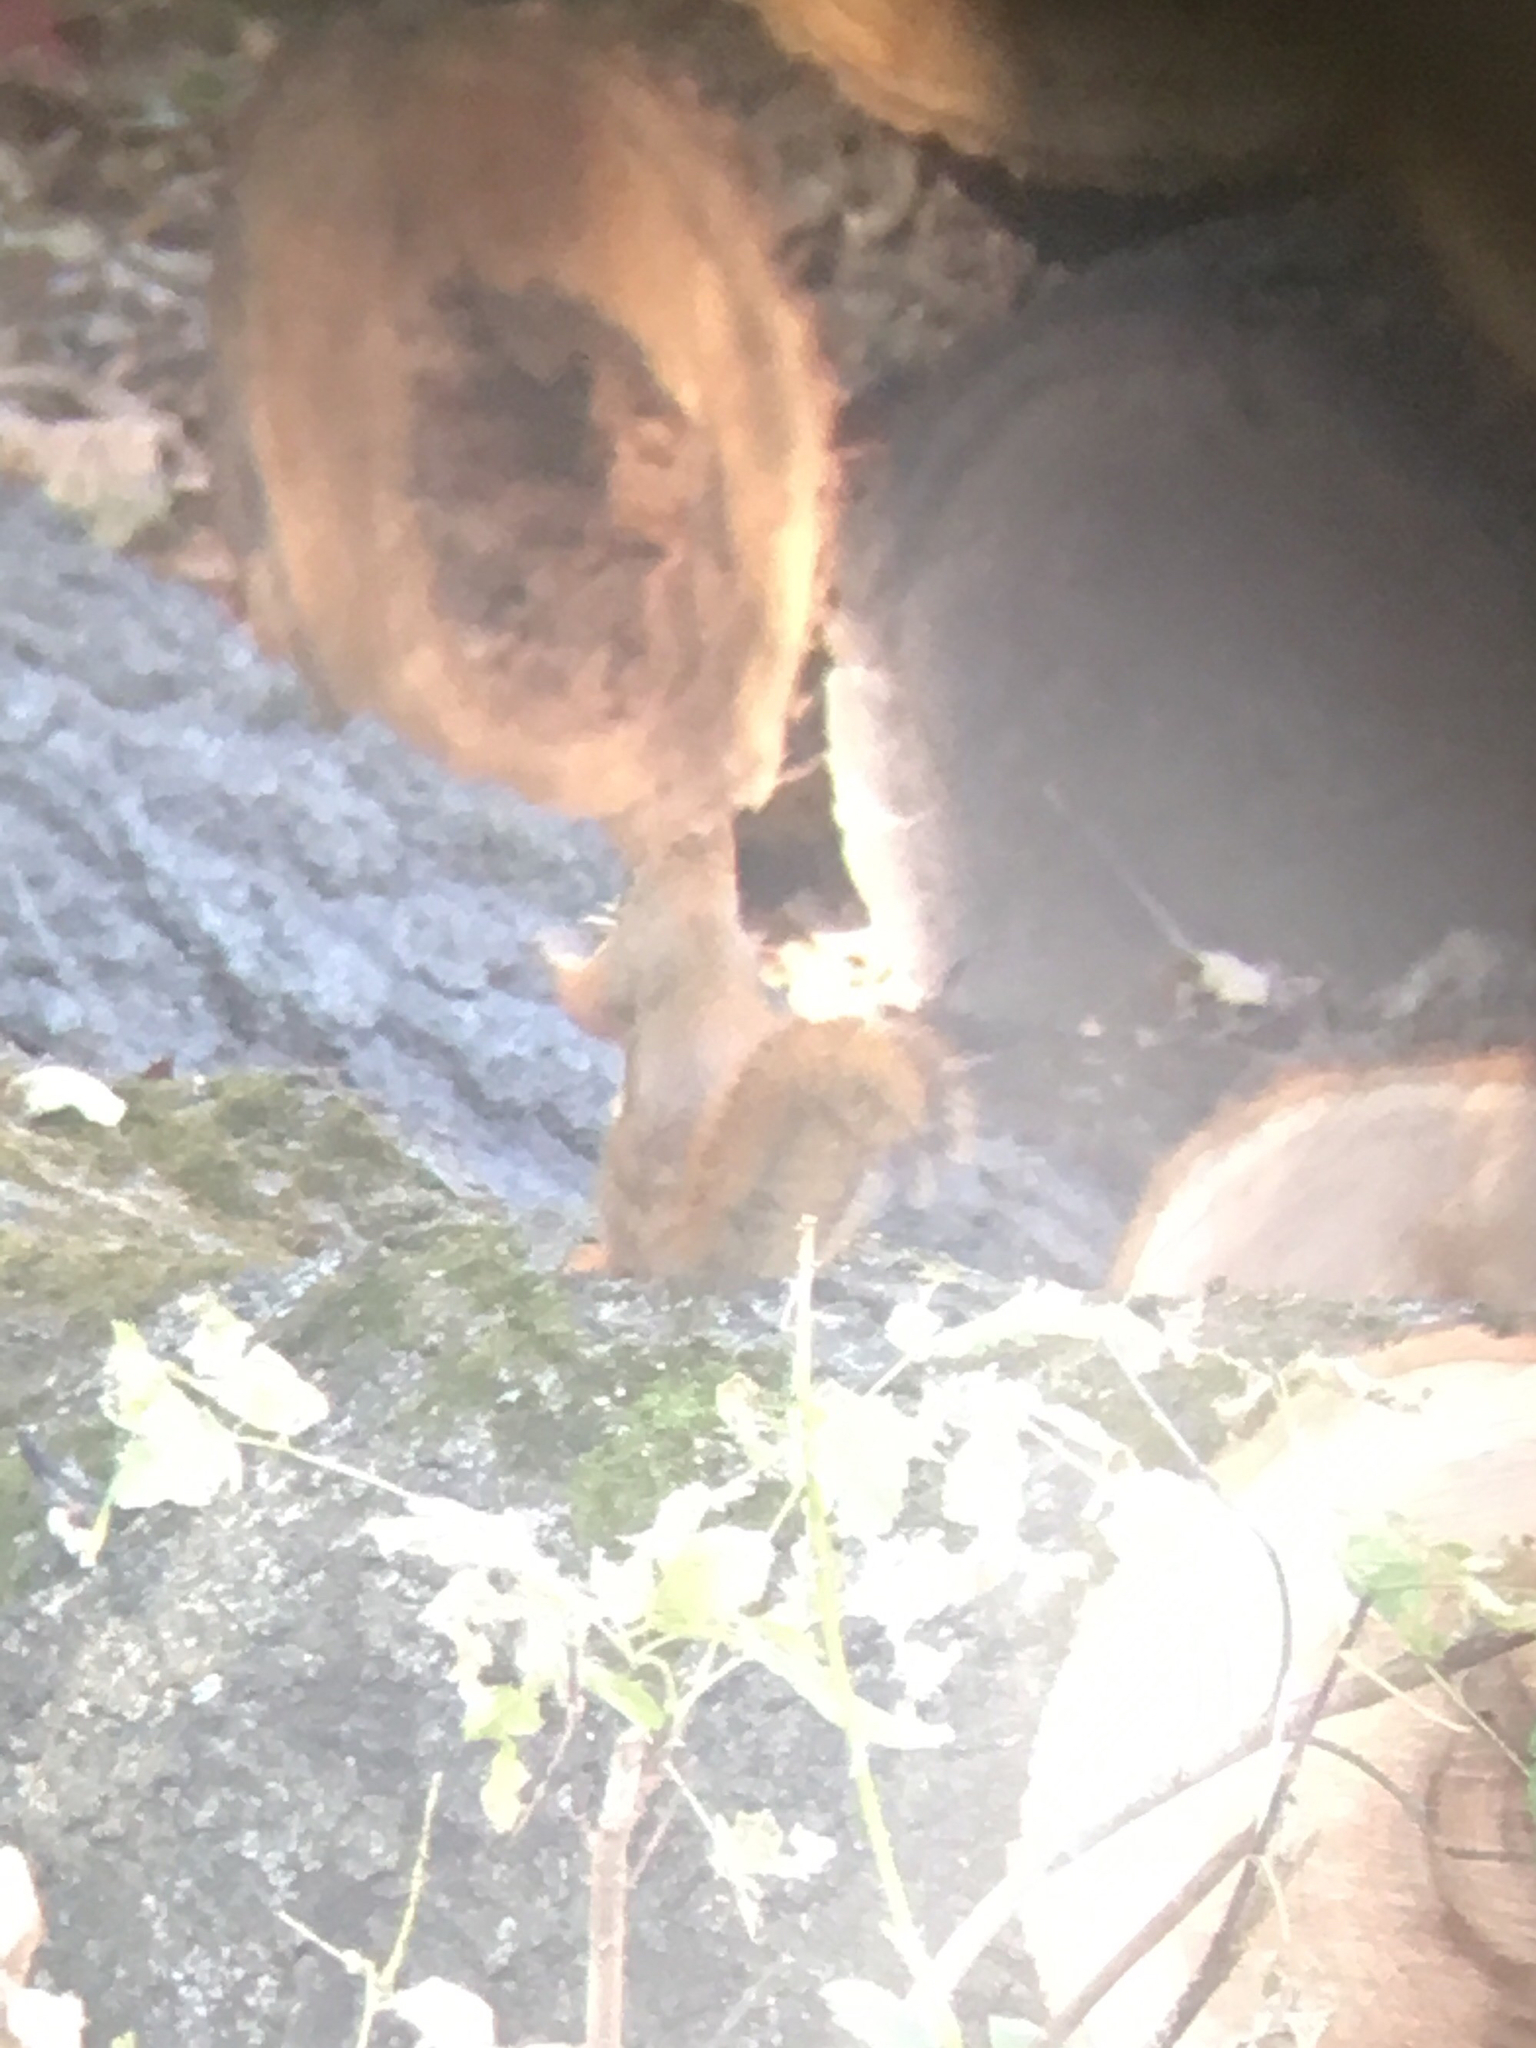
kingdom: Animalia
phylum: Chordata
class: Mammalia
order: Rodentia
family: Sciuridae
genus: Tamiasciurus
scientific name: Tamiasciurus hudsonicus
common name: Red squirrel
